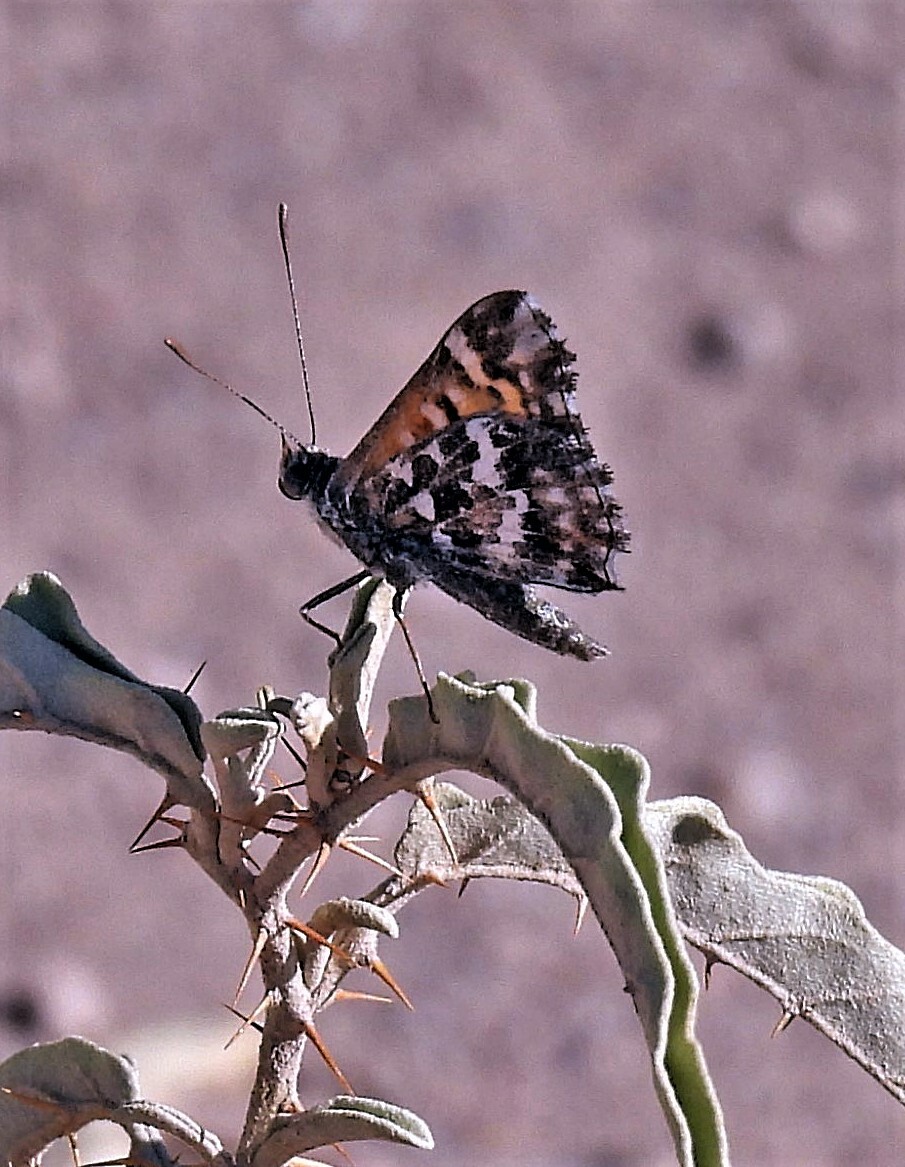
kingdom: Animalia
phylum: Arthropoda
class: Insecta
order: Lepidoptera
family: Lycaenidae
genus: Aricoris
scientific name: Aricoris chilensis
